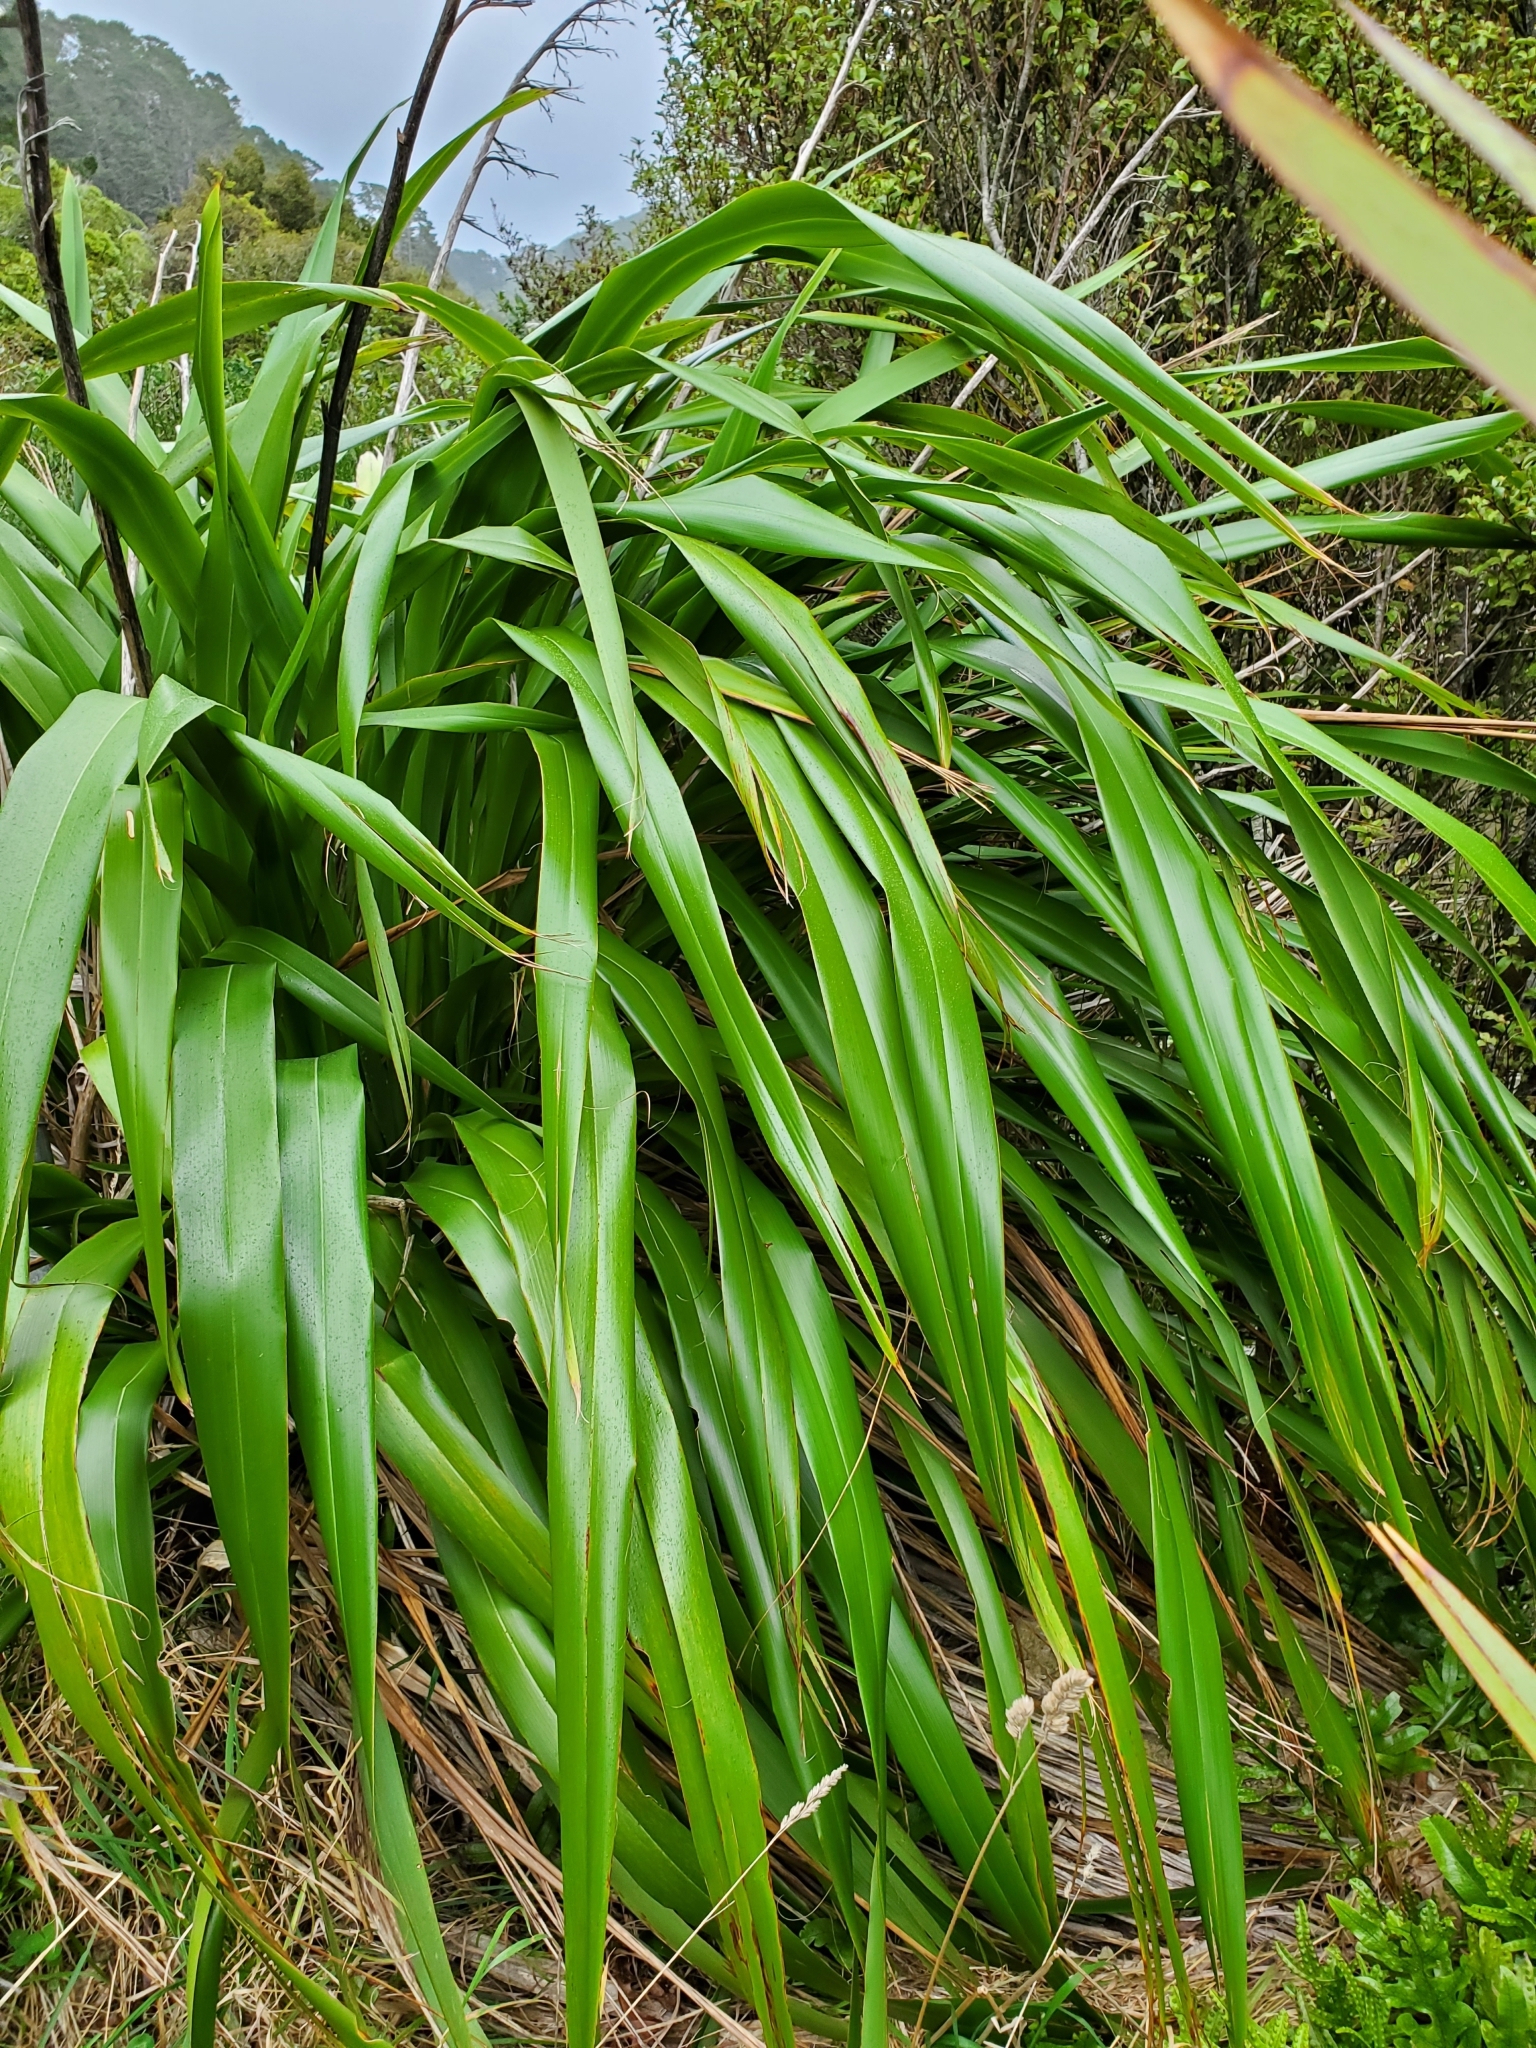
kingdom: Plantae
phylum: Tracheophyta
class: Liliopsida
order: Asparagales
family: Asphodelaceae
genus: Phormium
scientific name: Phormium colensoi
